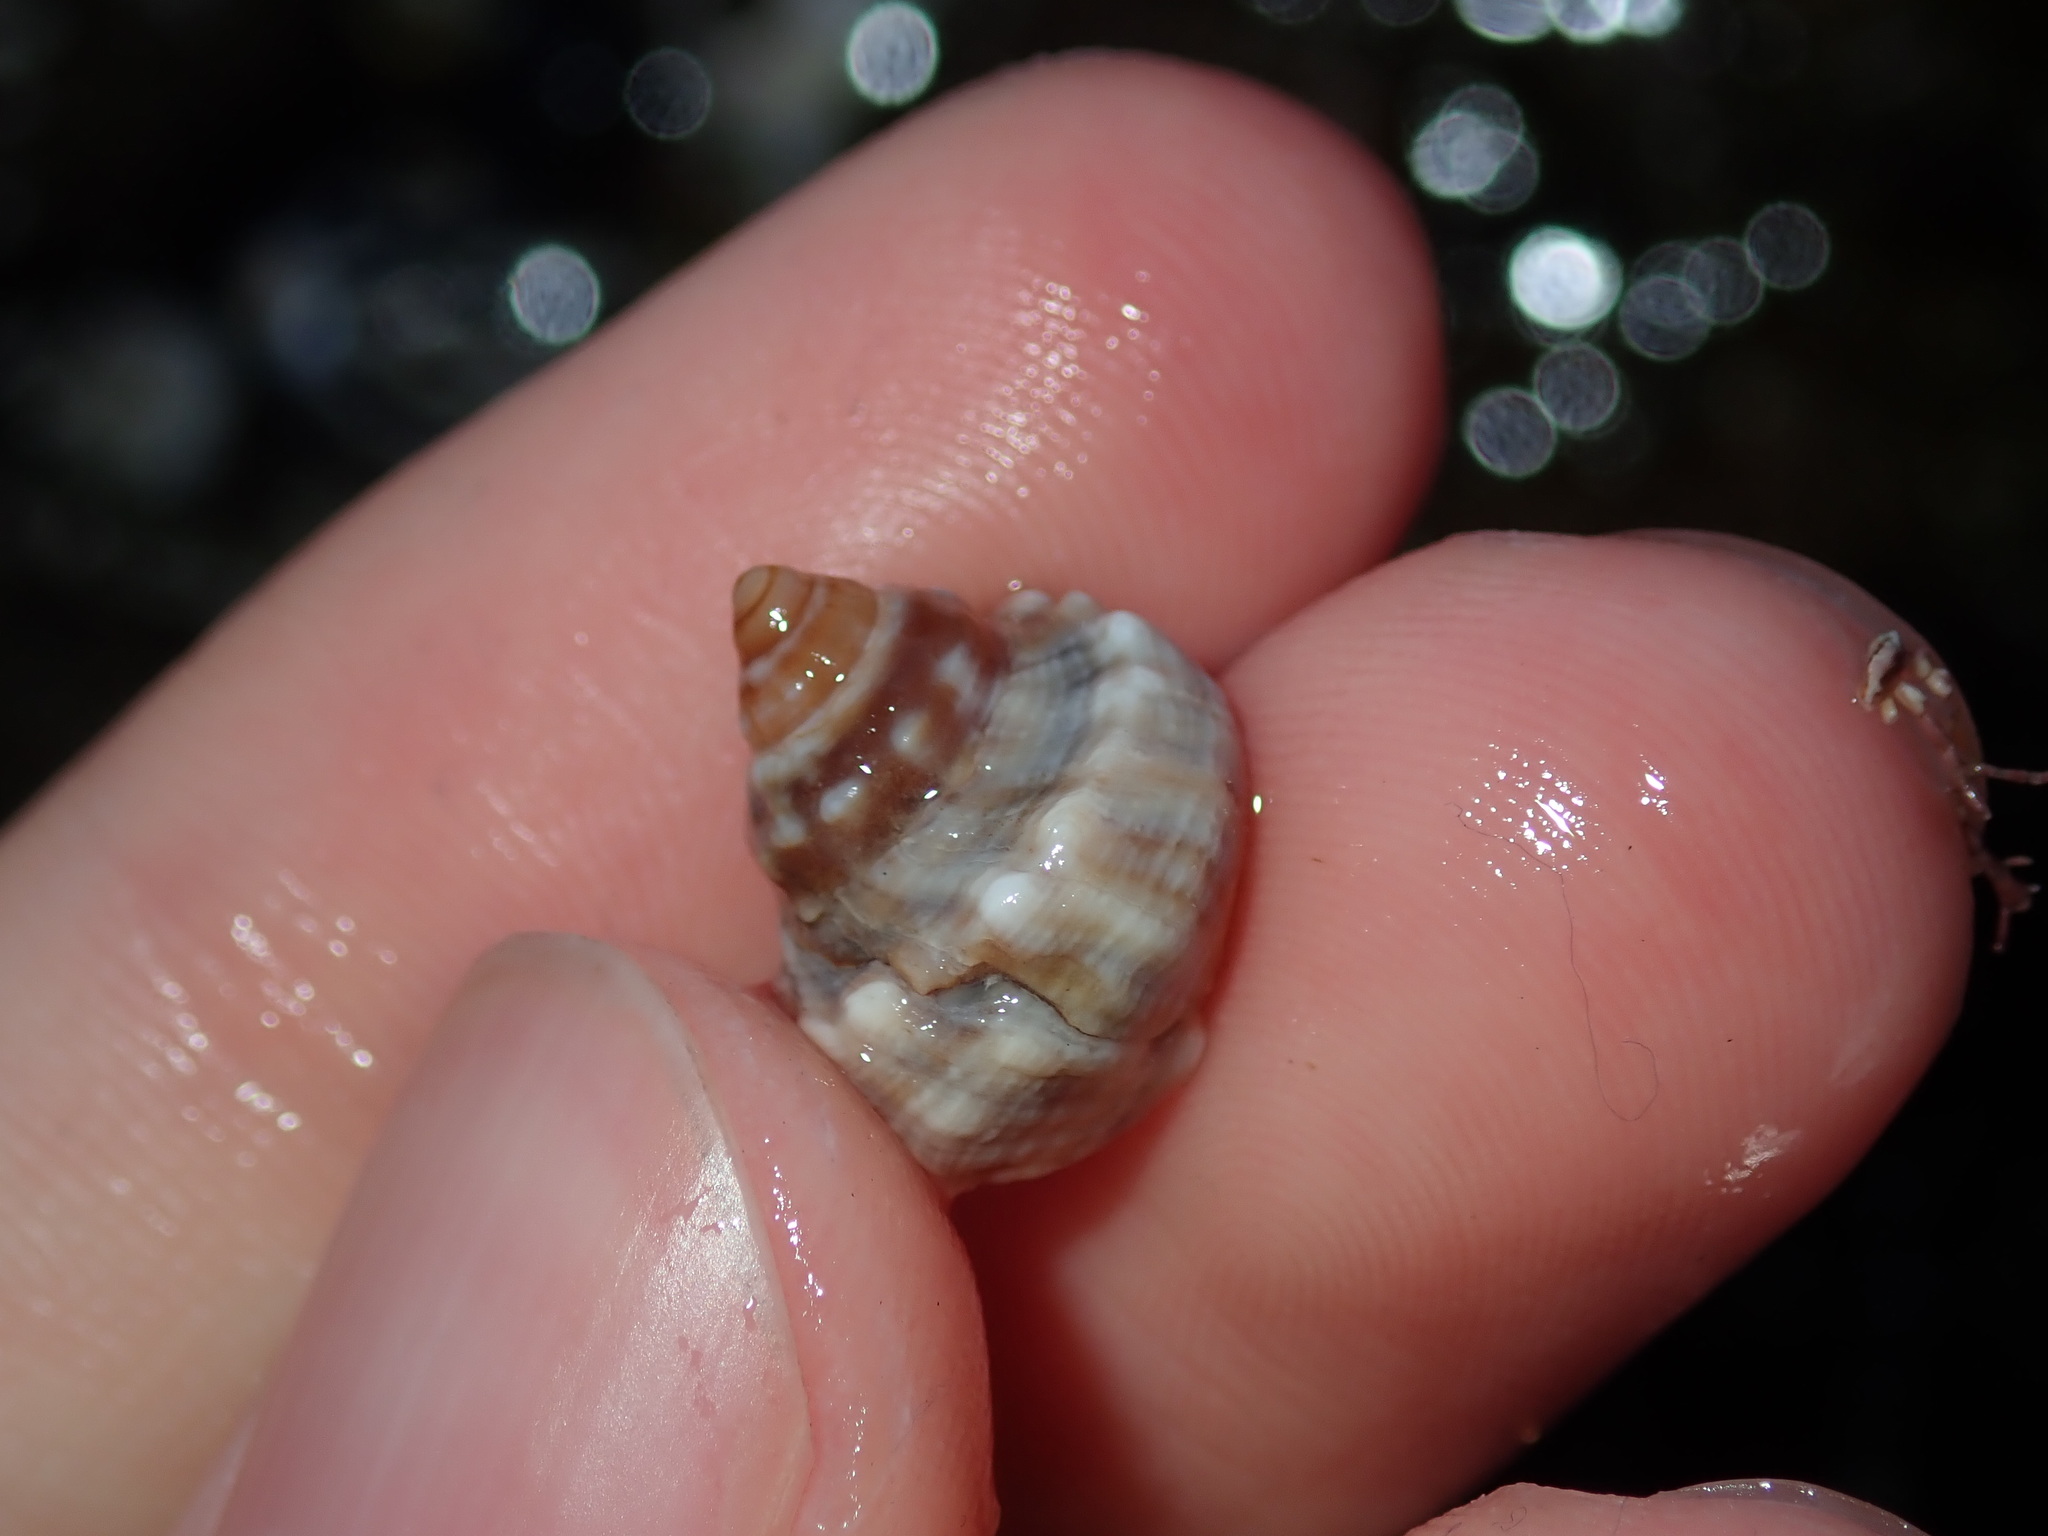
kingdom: Animalia
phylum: Mollusca
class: Gastropoda
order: Littorinimorpha
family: Littorinidae
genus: Nodilittorina
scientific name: Nodilittorina pyramidalis
